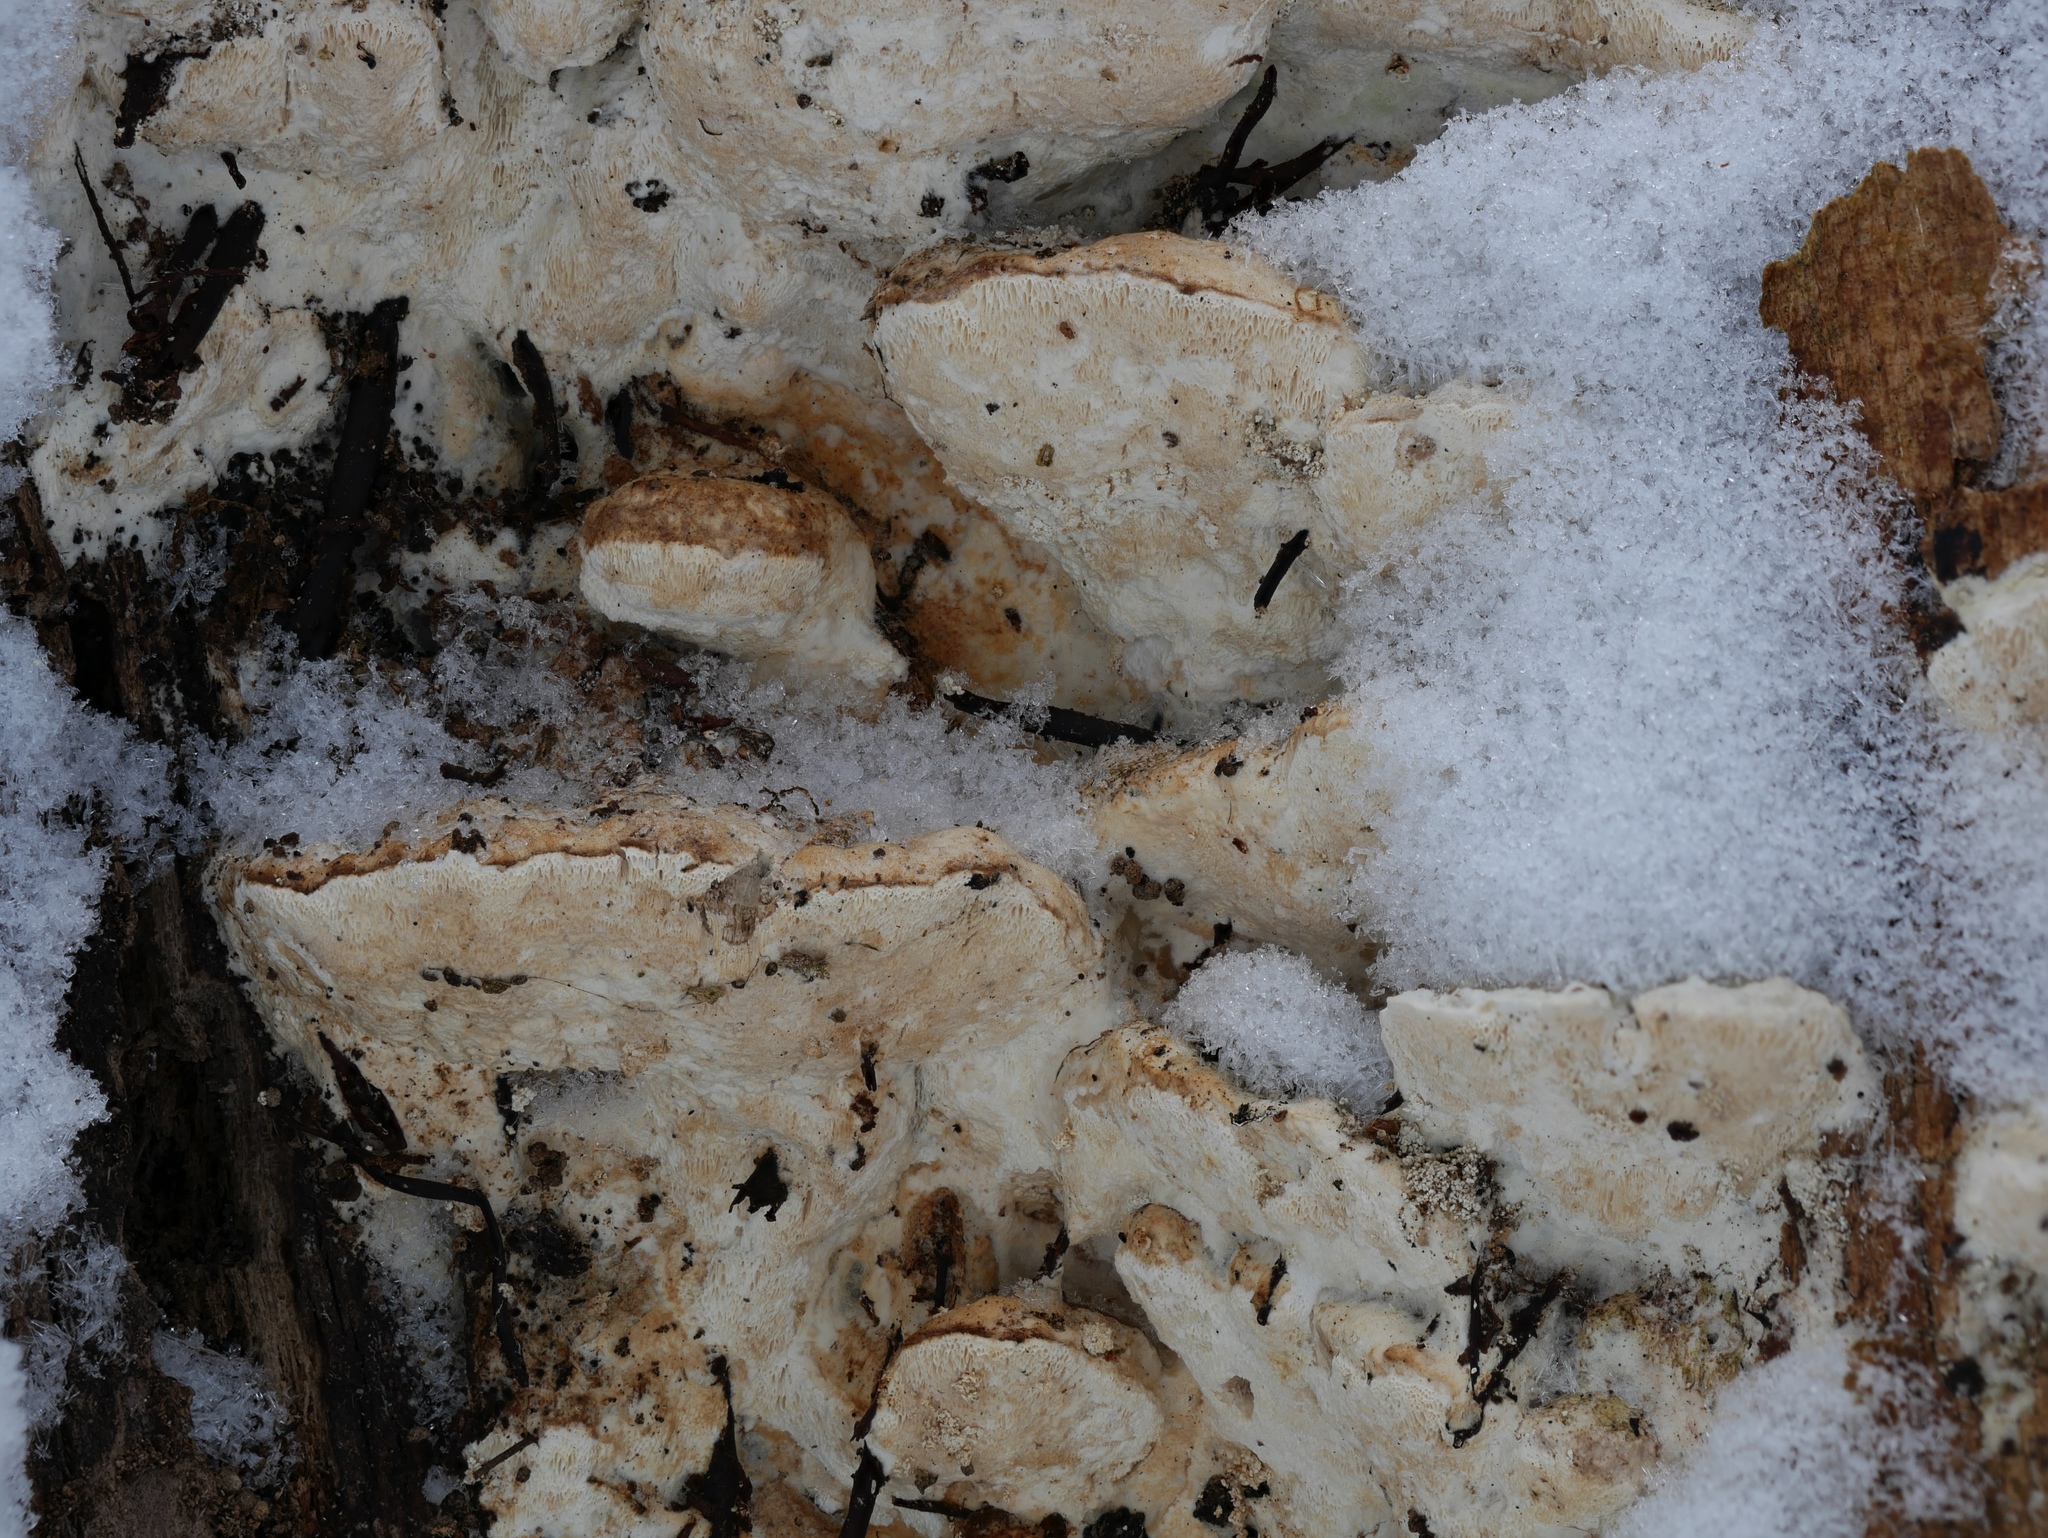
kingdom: Fungi
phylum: Basidiomycota
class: Agaricomycetes
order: Hymenochaetales
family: Oxyporaceae
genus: Oxyporus
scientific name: Oxyporus populinus
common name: Poplar bracket
